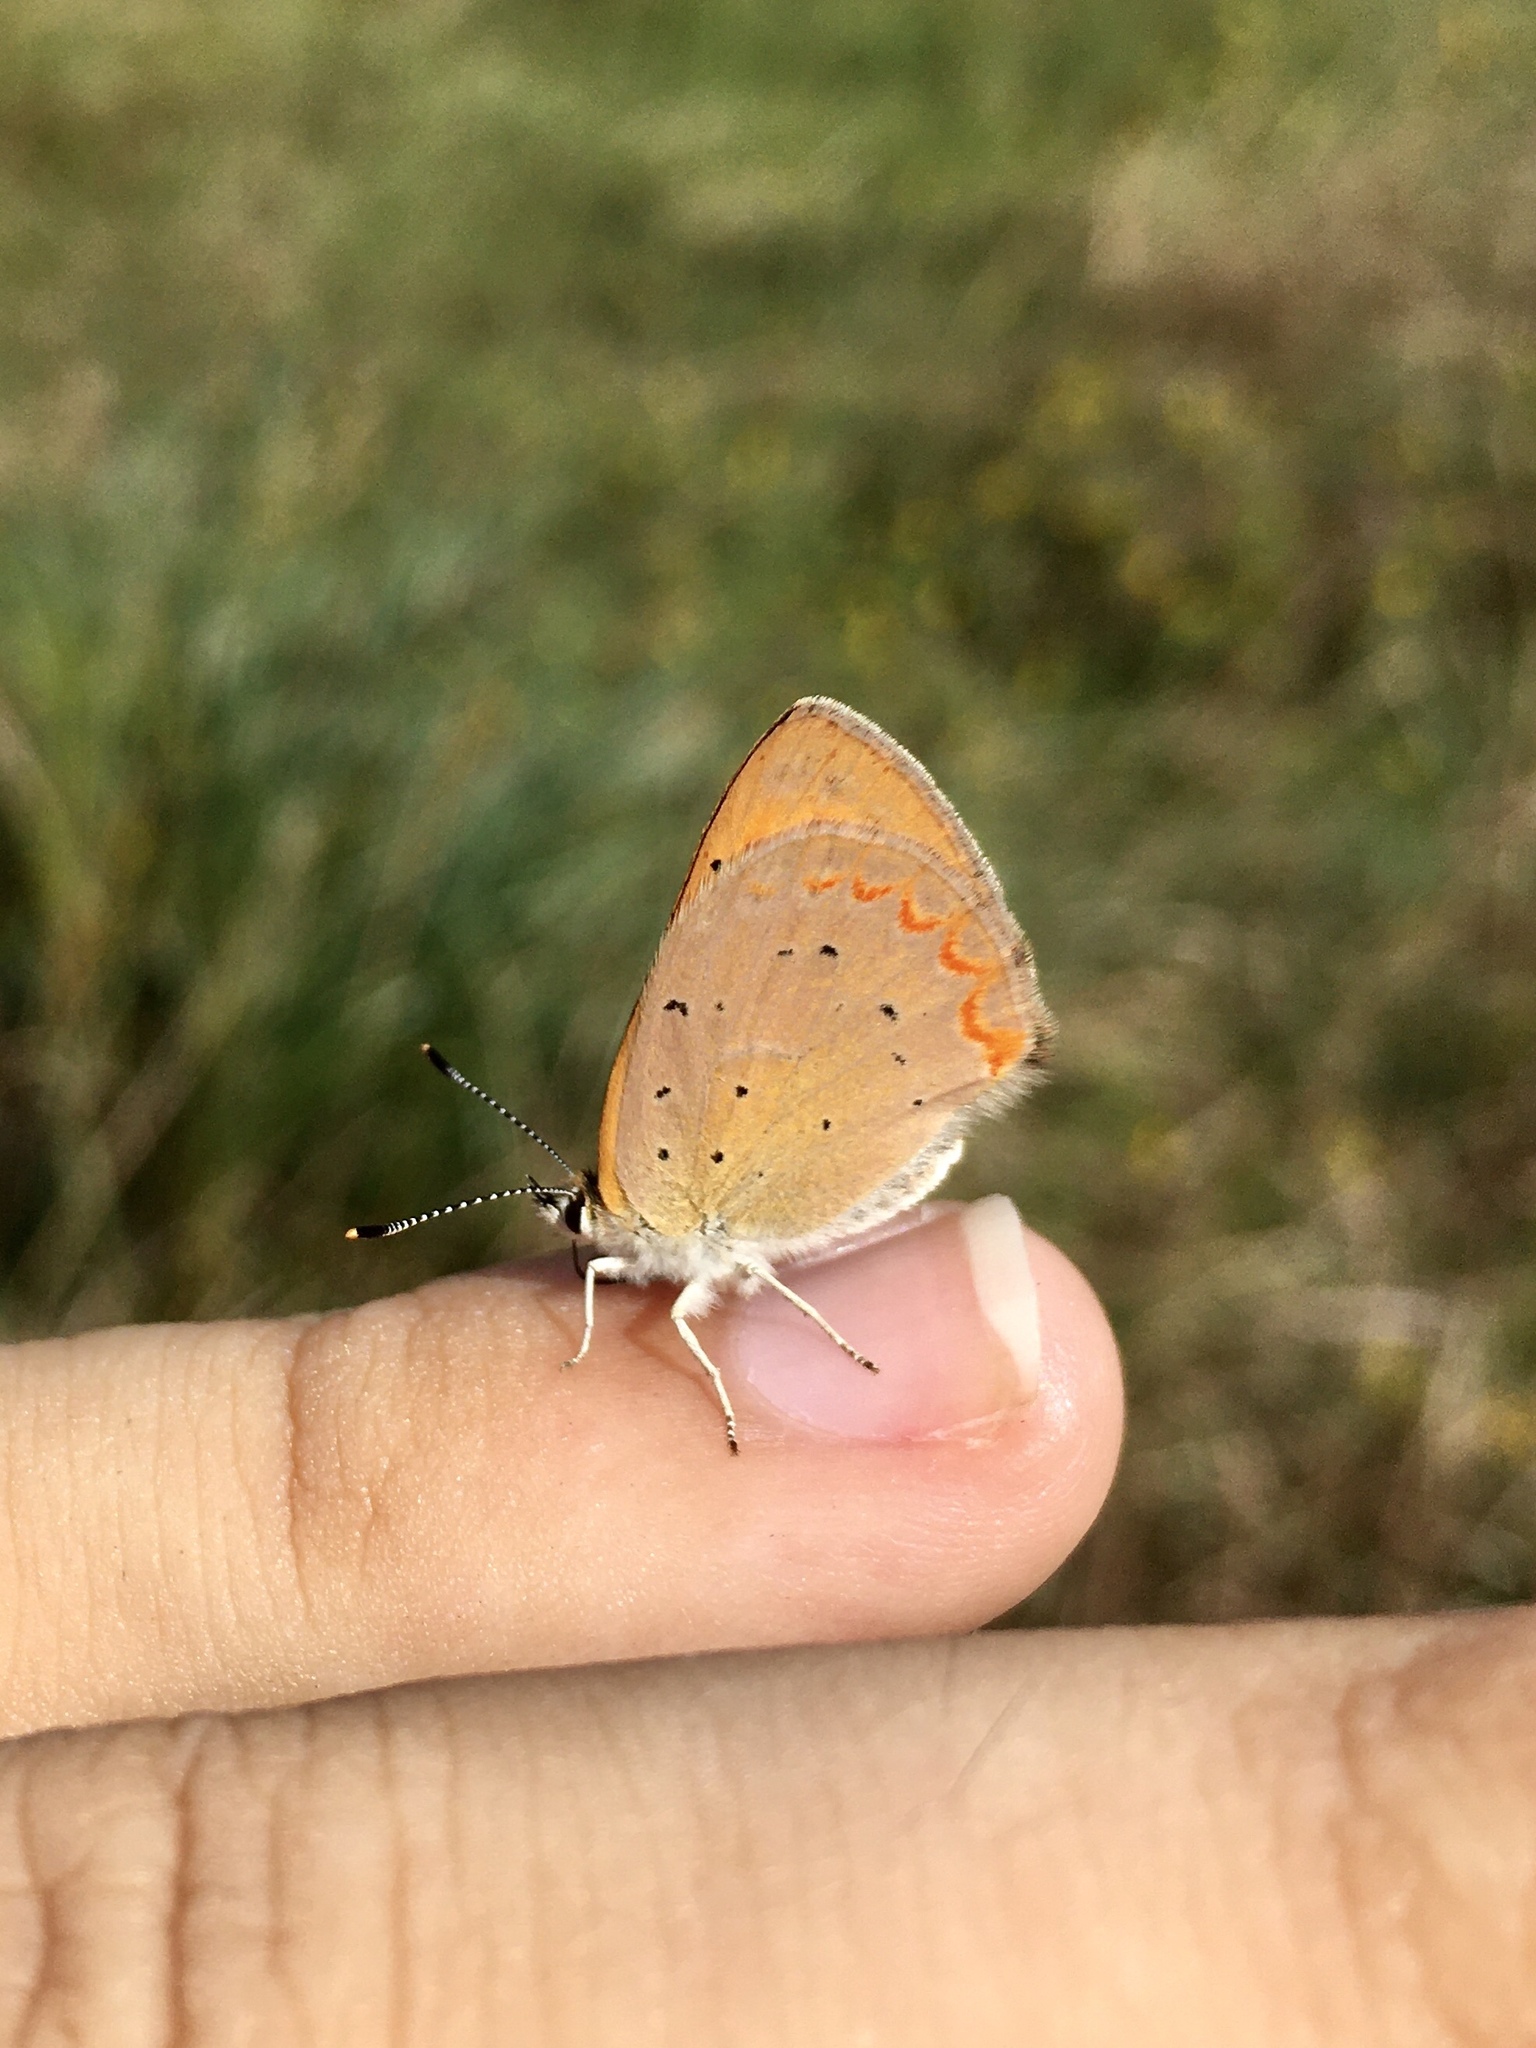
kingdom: Animalia
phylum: Arthropoda
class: Insecta
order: Lepidoptera
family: Lycaenidae
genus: Tharsalea
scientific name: Tharsalea helloides
